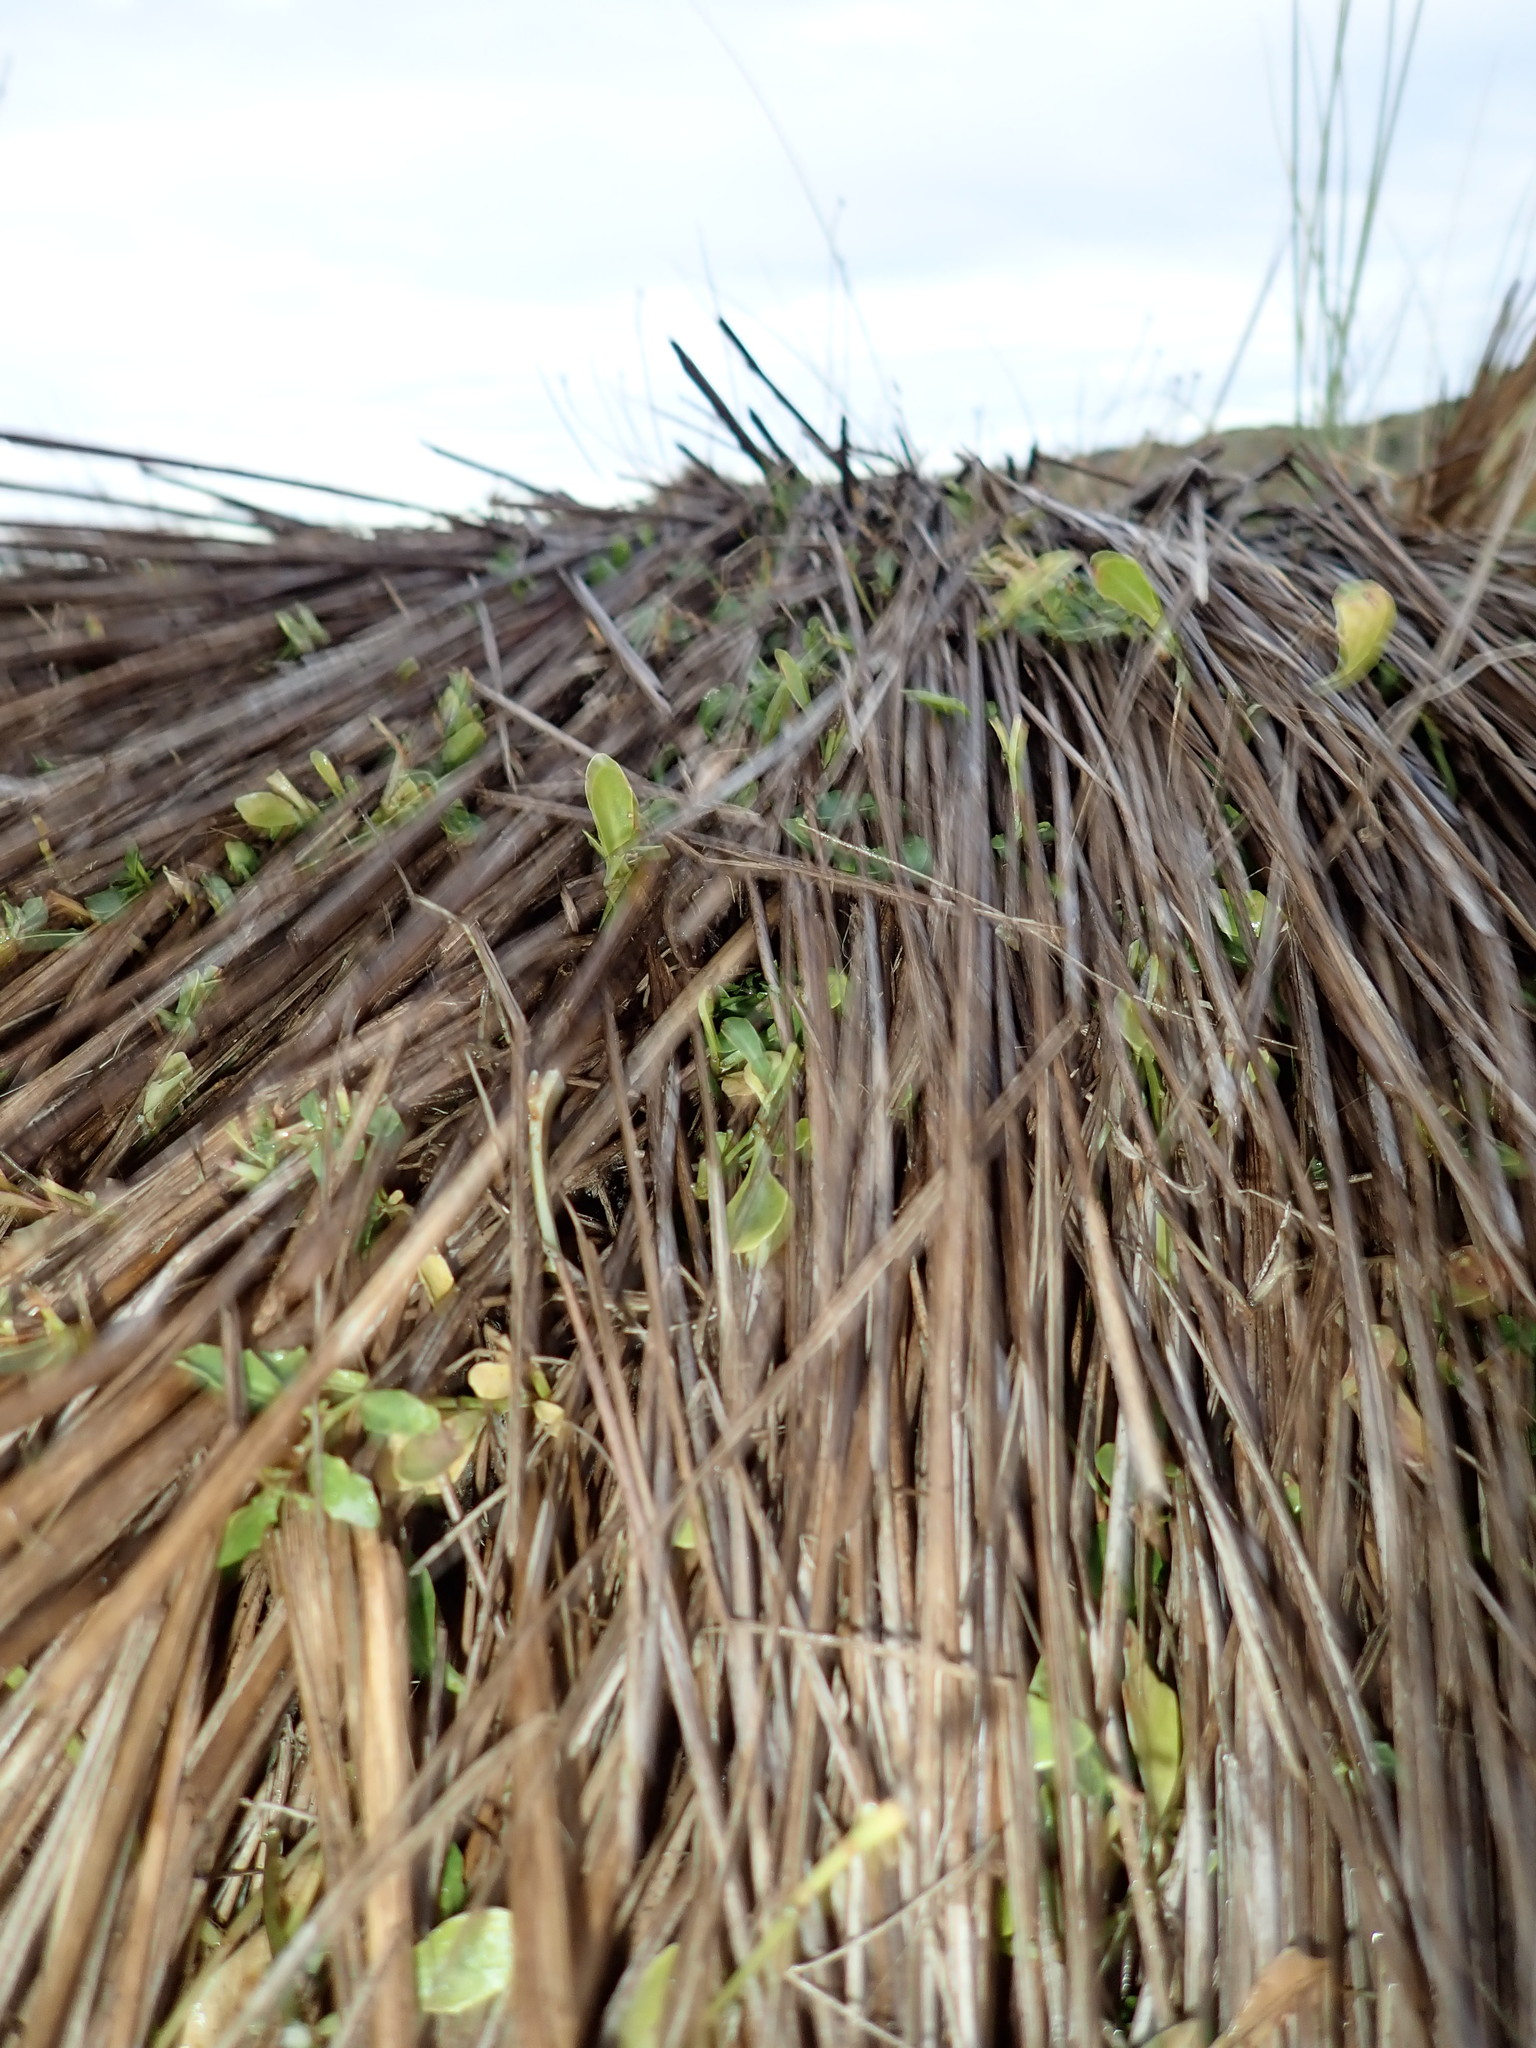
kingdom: Plantae
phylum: Tracheophyta
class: Magnoliopsida
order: Asterales
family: Campanulaceae
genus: Lobelia
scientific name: Lobelia anceps
